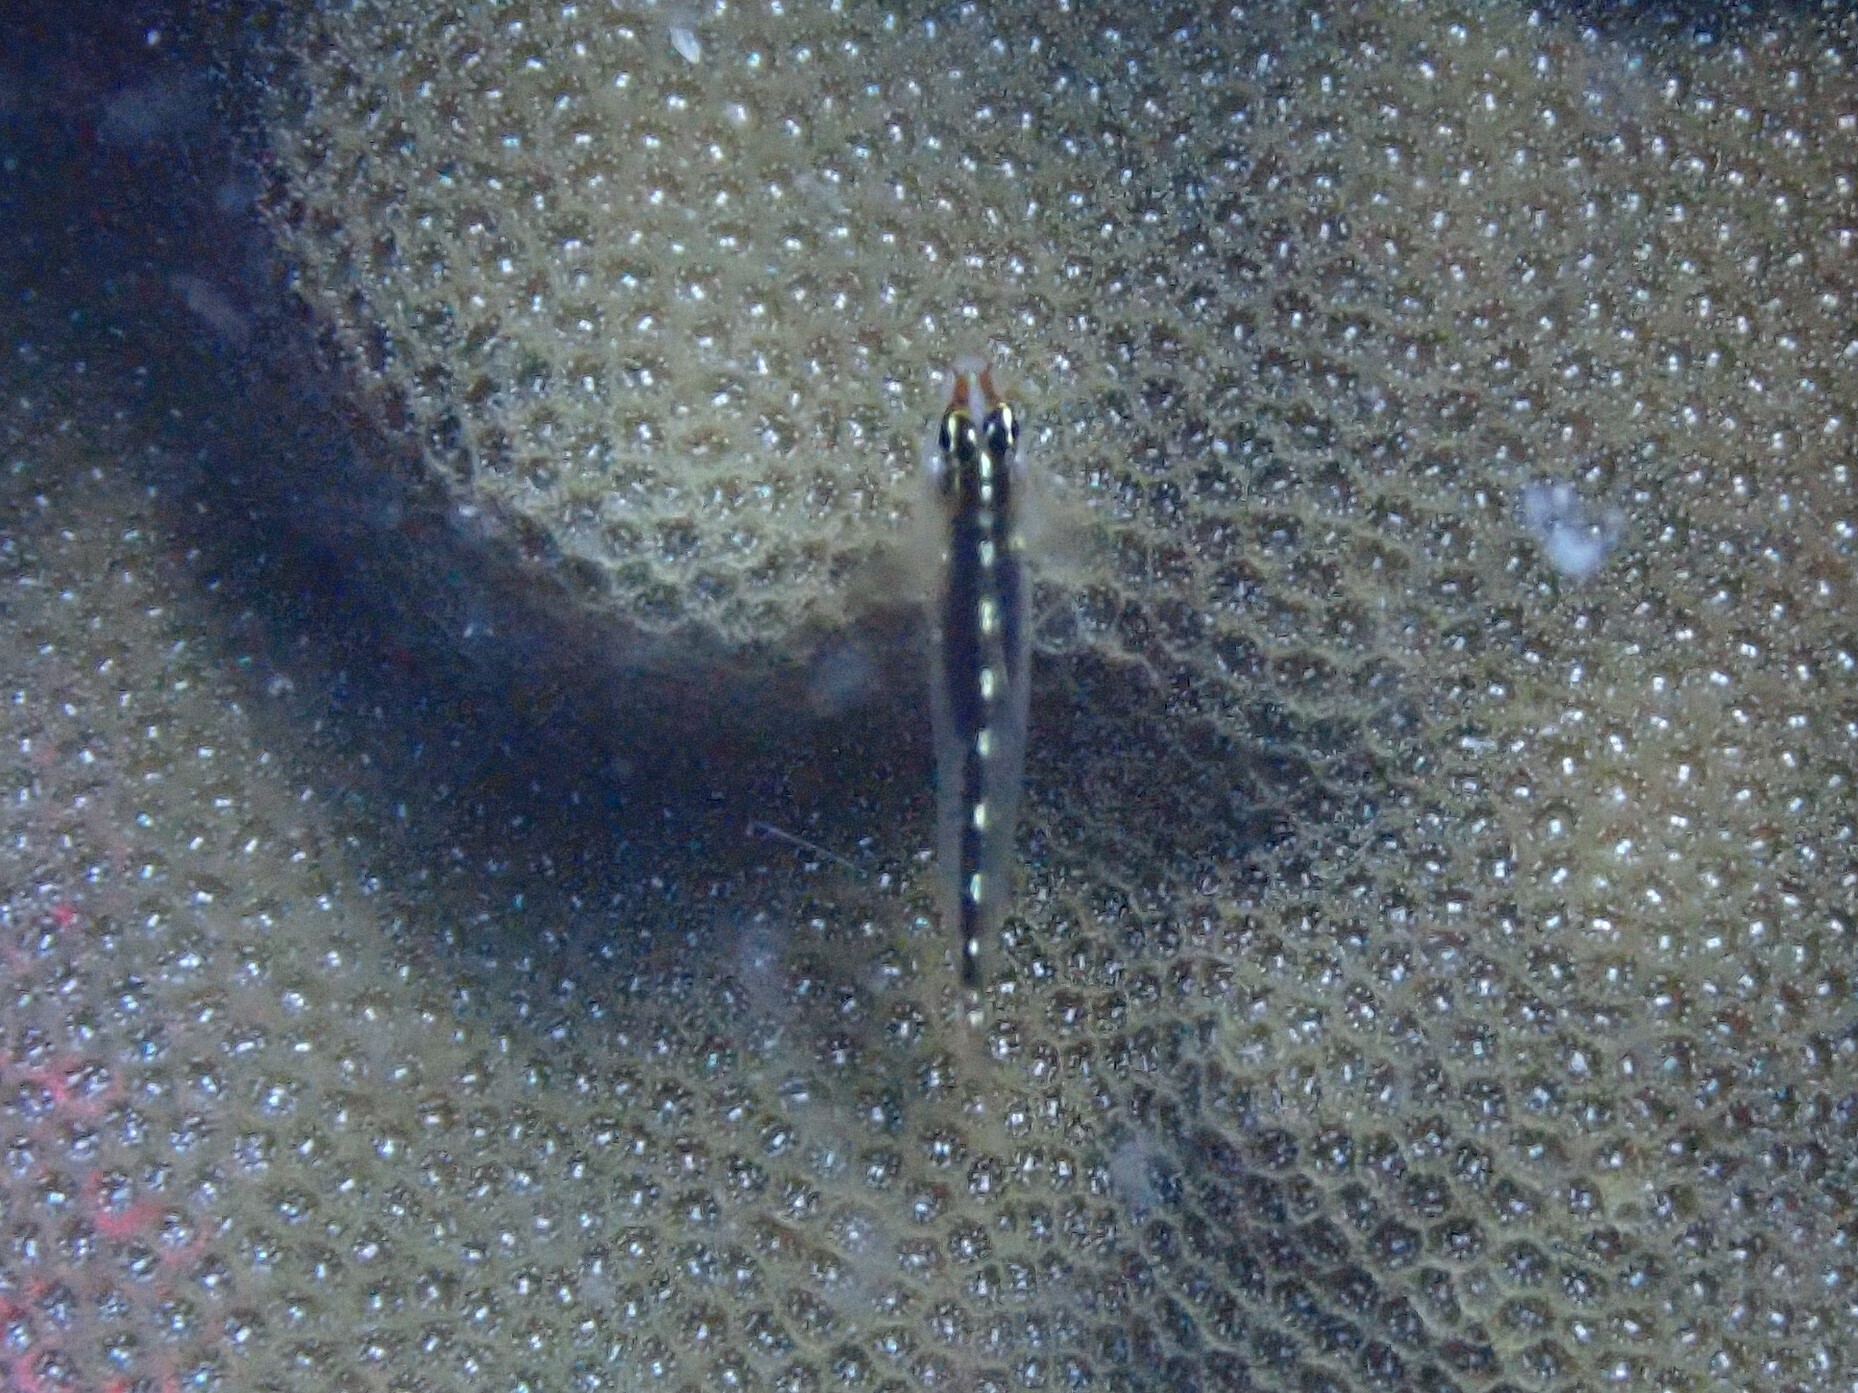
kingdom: Animalia
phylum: Chordata
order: Perciformes
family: Gobiidae
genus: Eviota
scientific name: Eviota sebreei
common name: Sebree's pygmy goby
